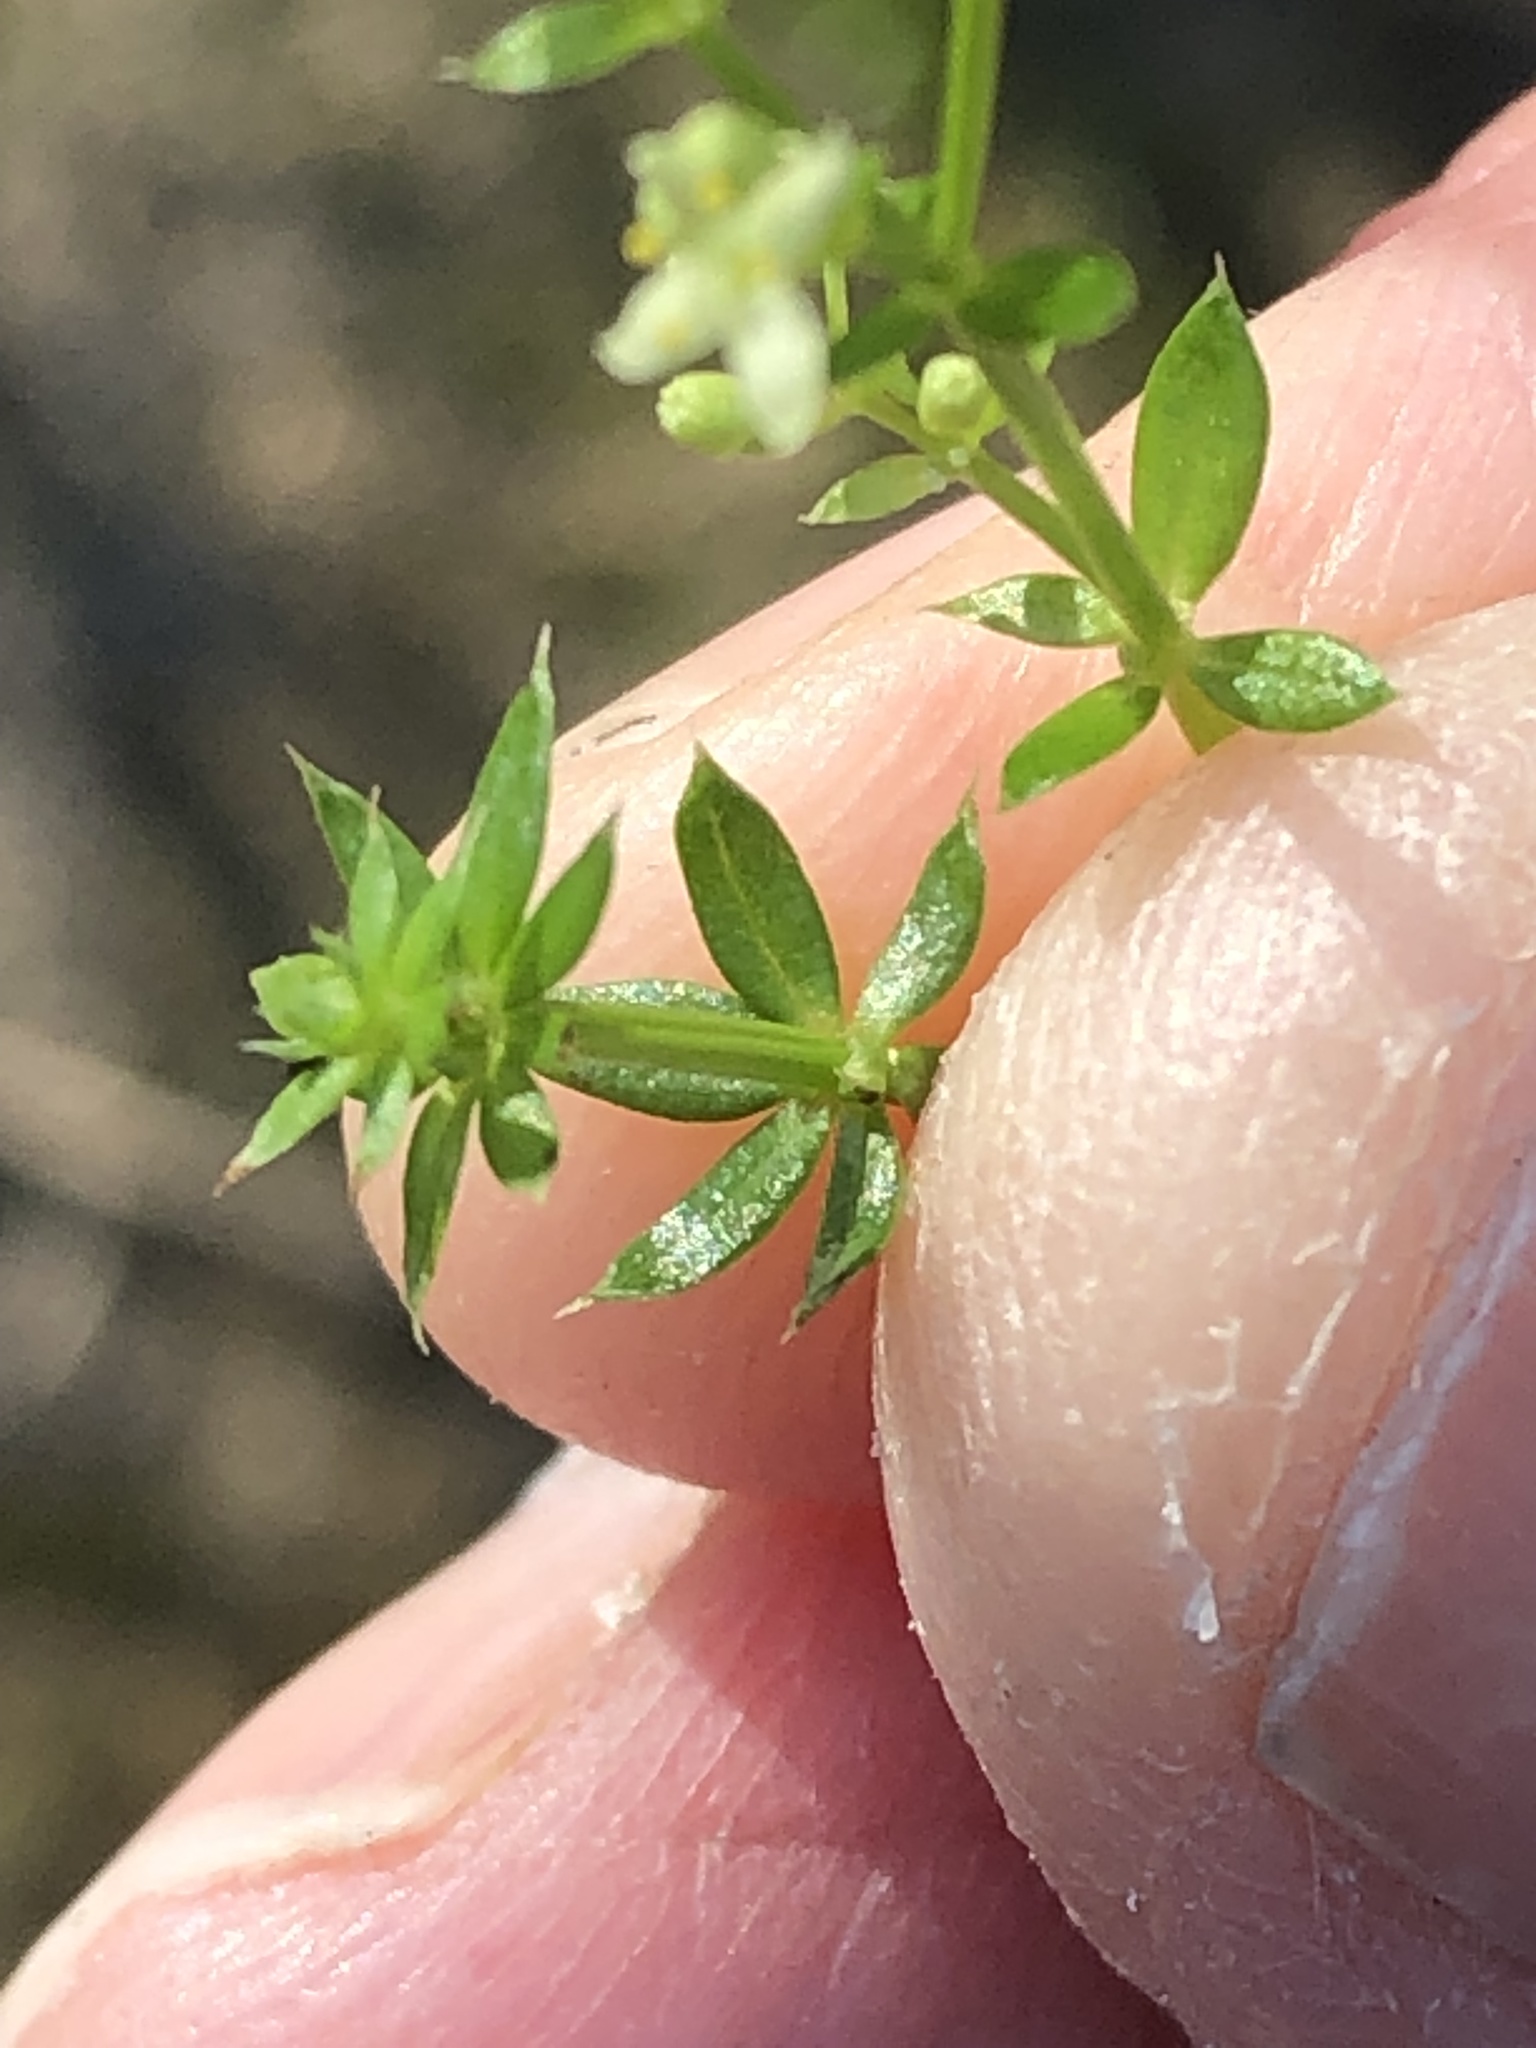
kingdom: Plantae
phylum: Tracheophyta
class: Magnoliopsida
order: Gentianales
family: Rubiaceae
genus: Galium
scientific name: Galium album
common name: White bedstraw
